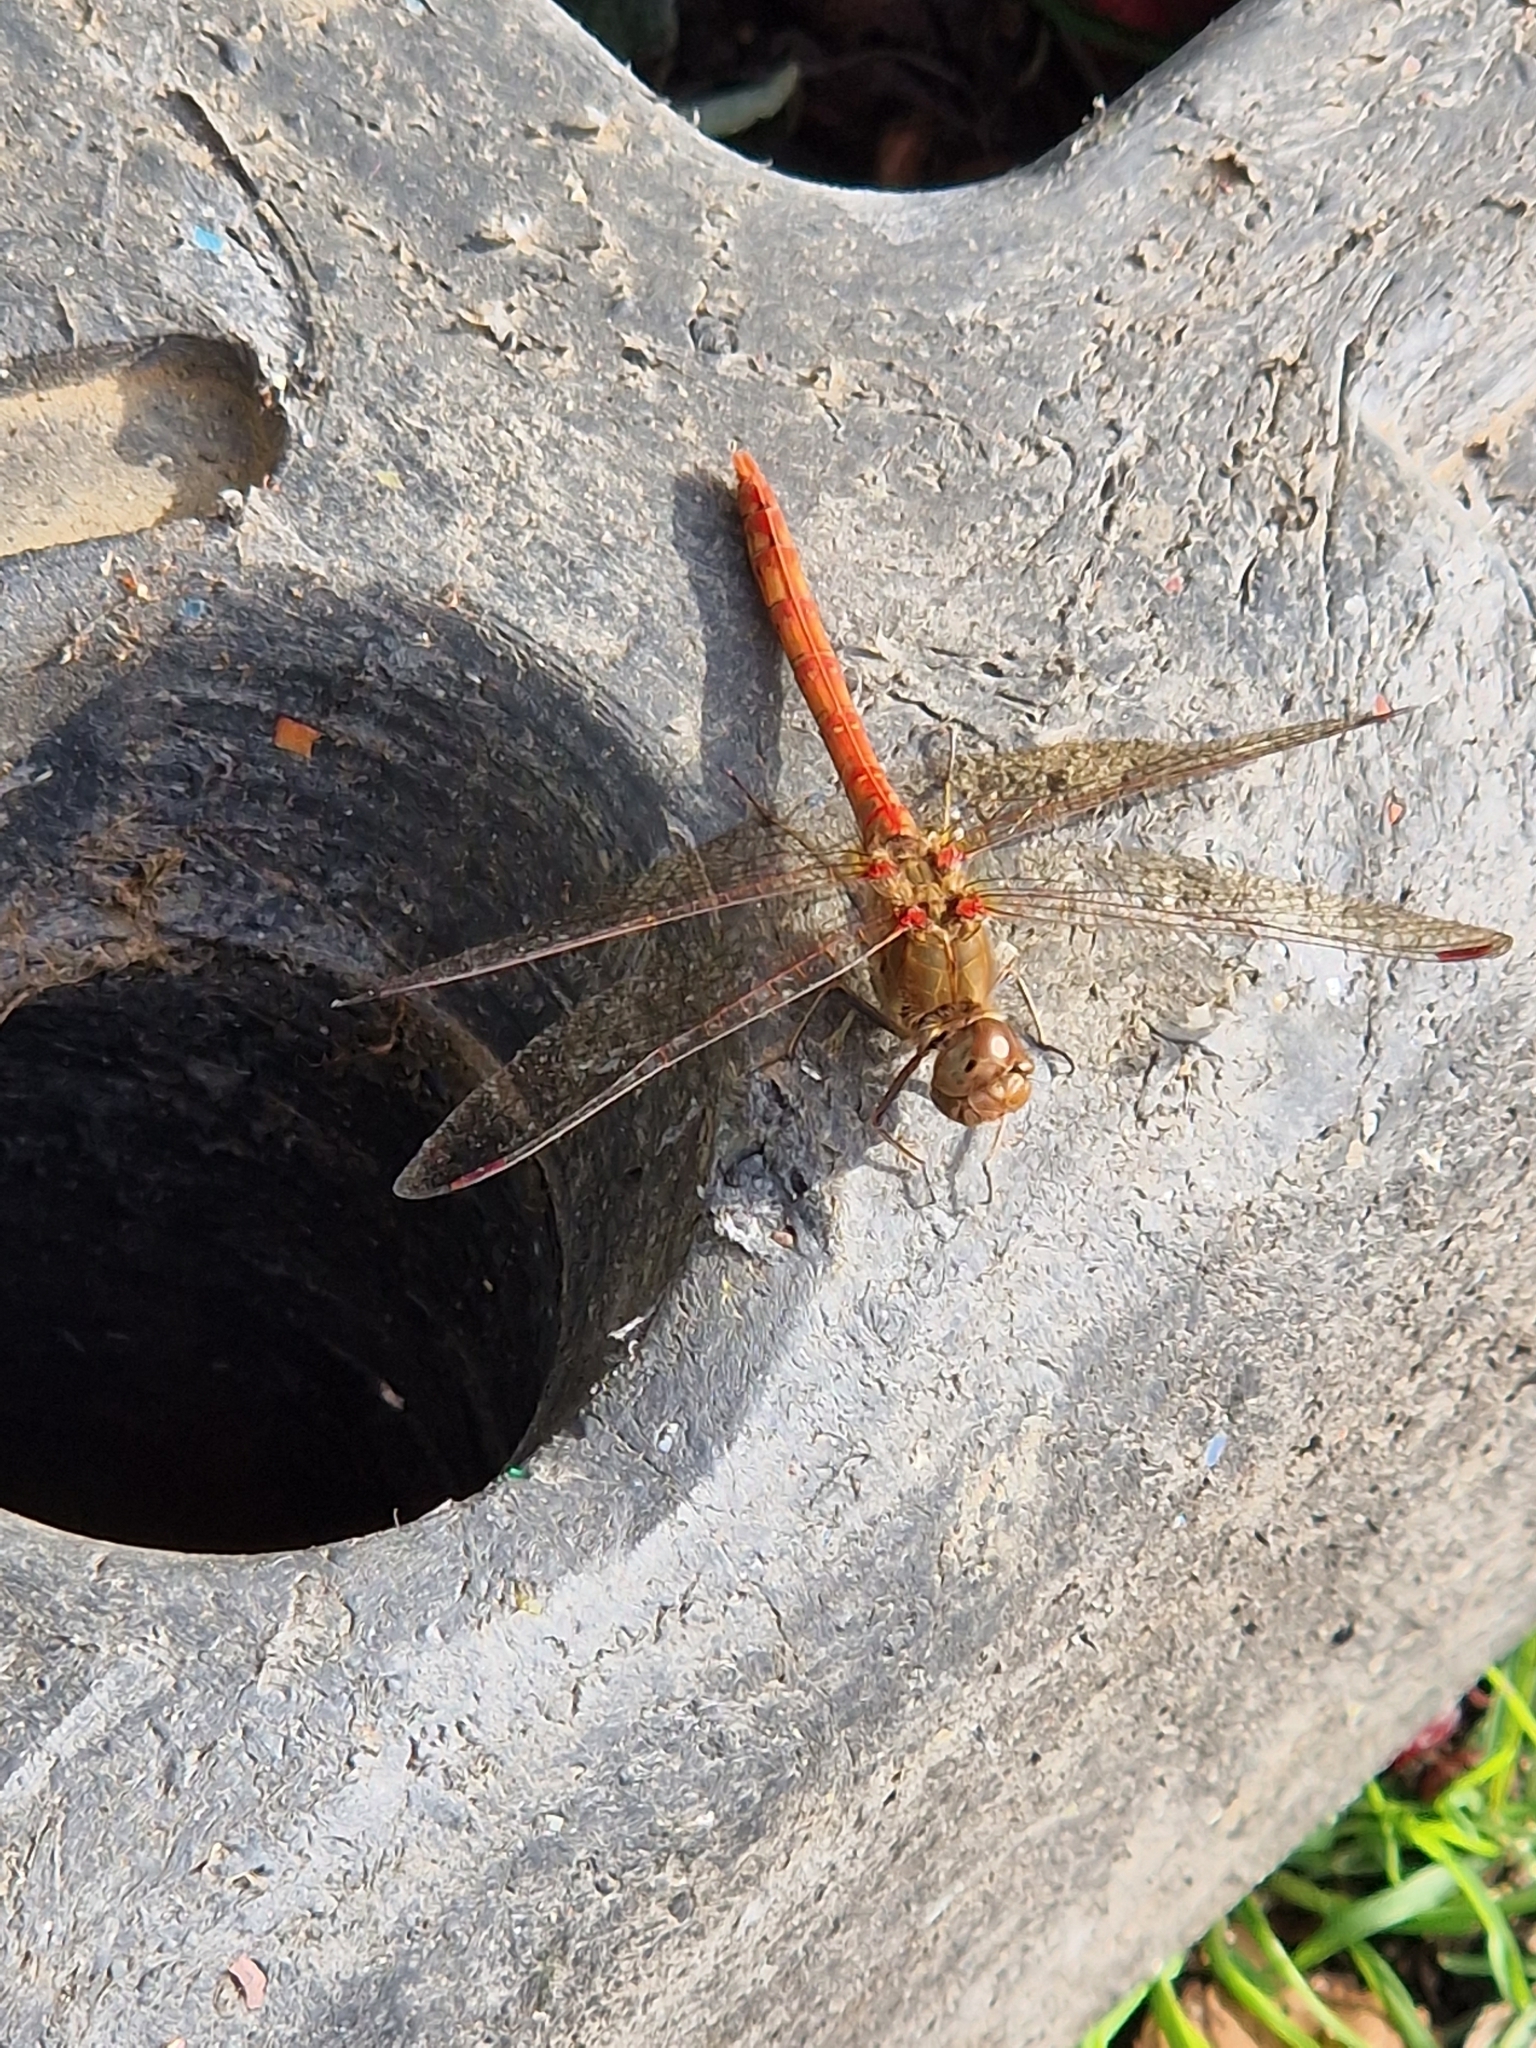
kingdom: Animalia
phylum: Arthropoda
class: Insecta
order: Odonata
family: Libellulidae
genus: Sympetrum
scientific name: Sympetrum striolatum
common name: Common darter
